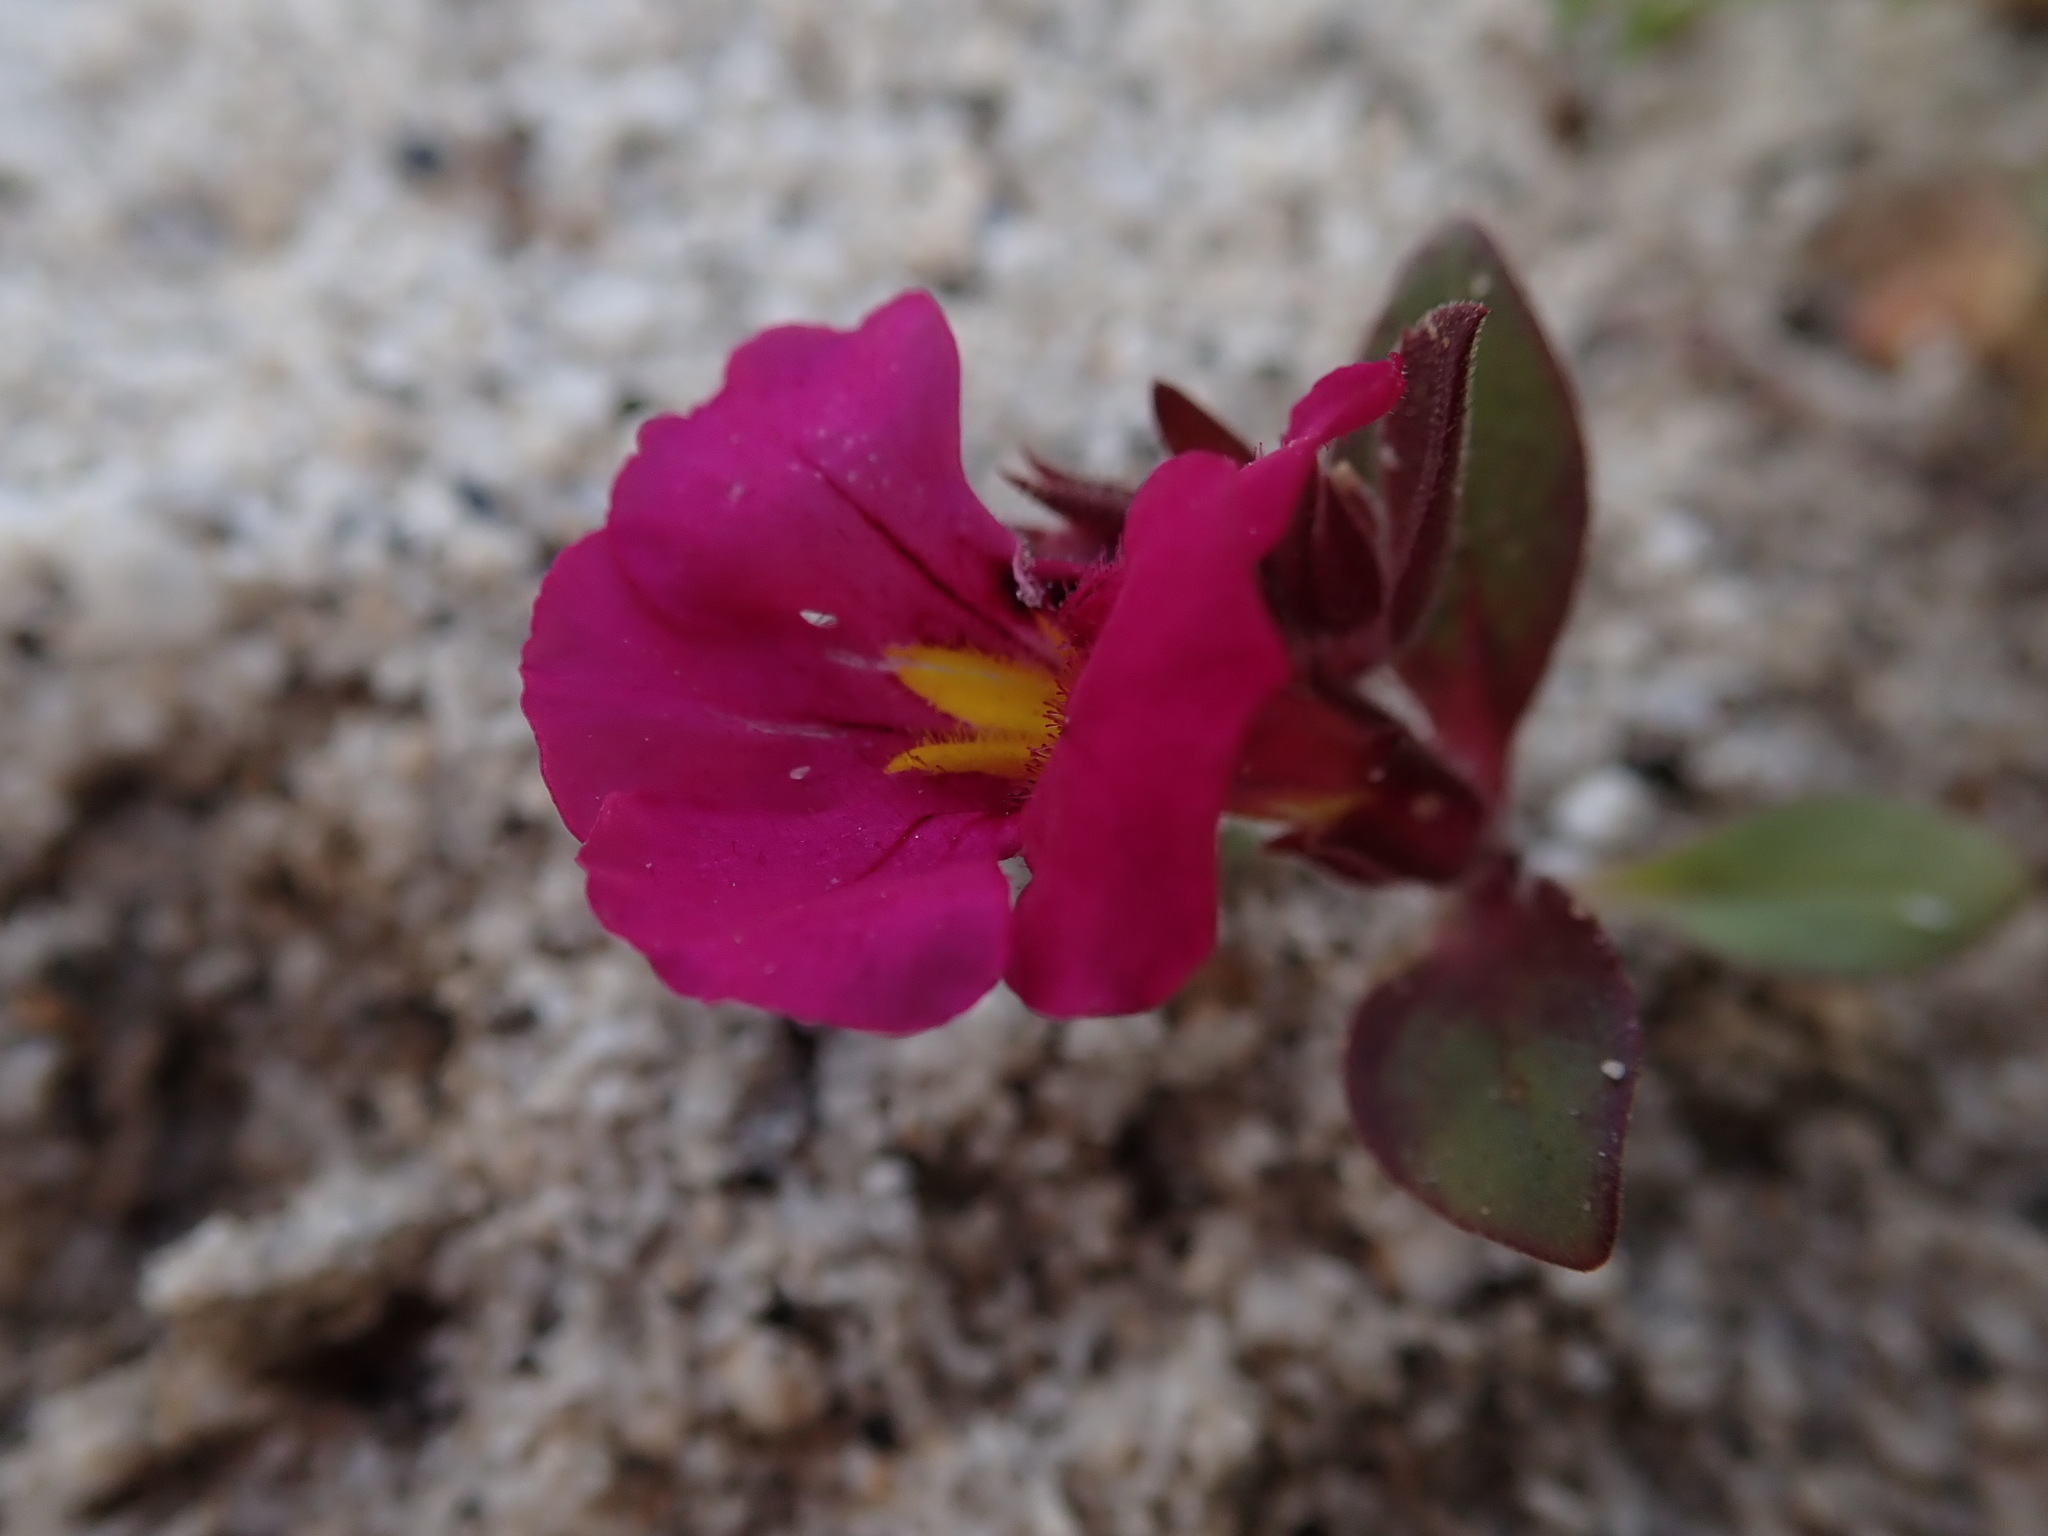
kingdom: Plantae
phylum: Tracheophyta
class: Magnoliopsida
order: Lamiales
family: Phrymaceae
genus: Diplacus
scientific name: Diplacus bigelovii
